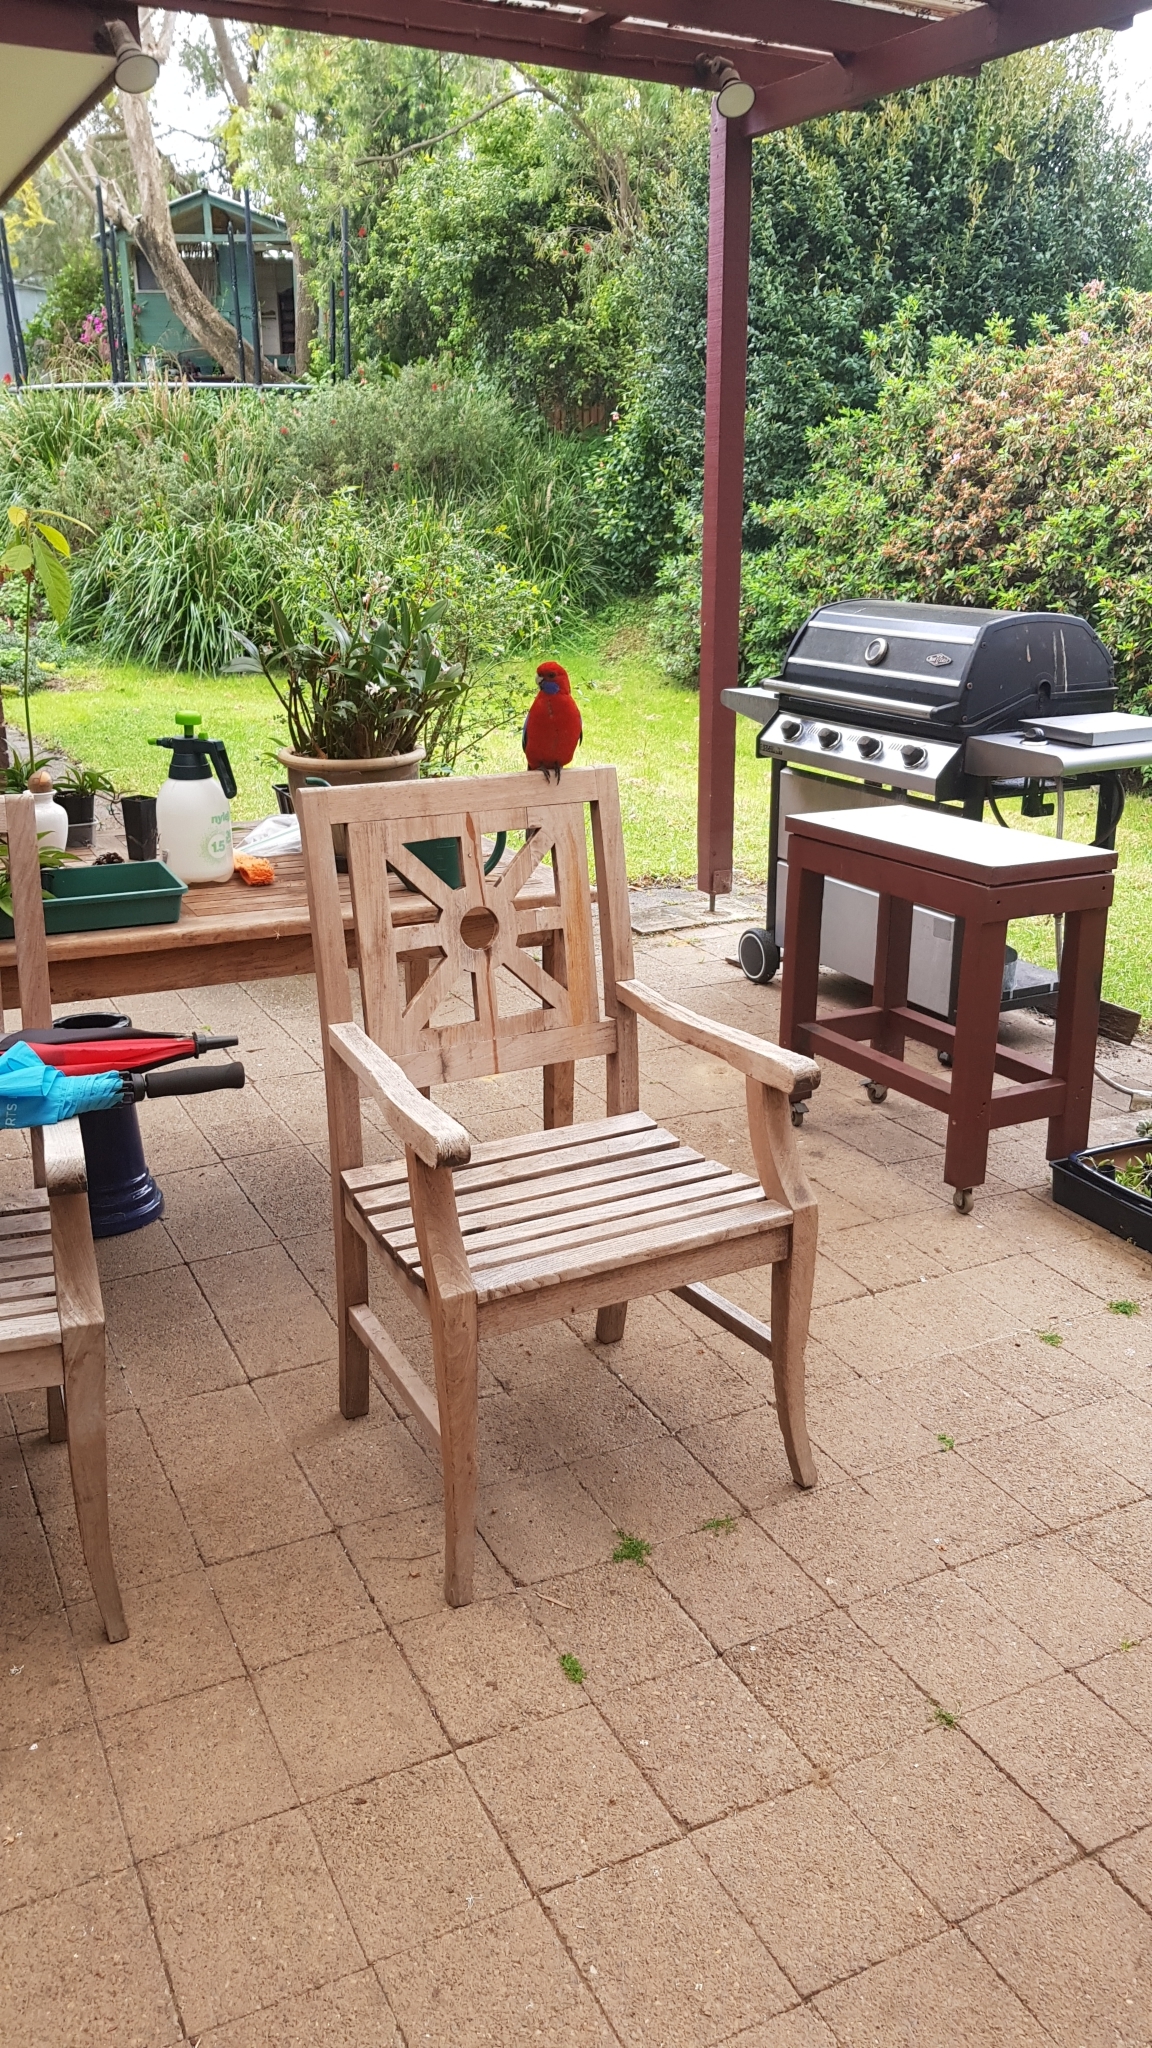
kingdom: Animalia
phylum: Chordata
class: Aves
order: Psittaciformes
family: Psittacidae
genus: Platycercus
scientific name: Platycercus elegans
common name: Crimson rosella
